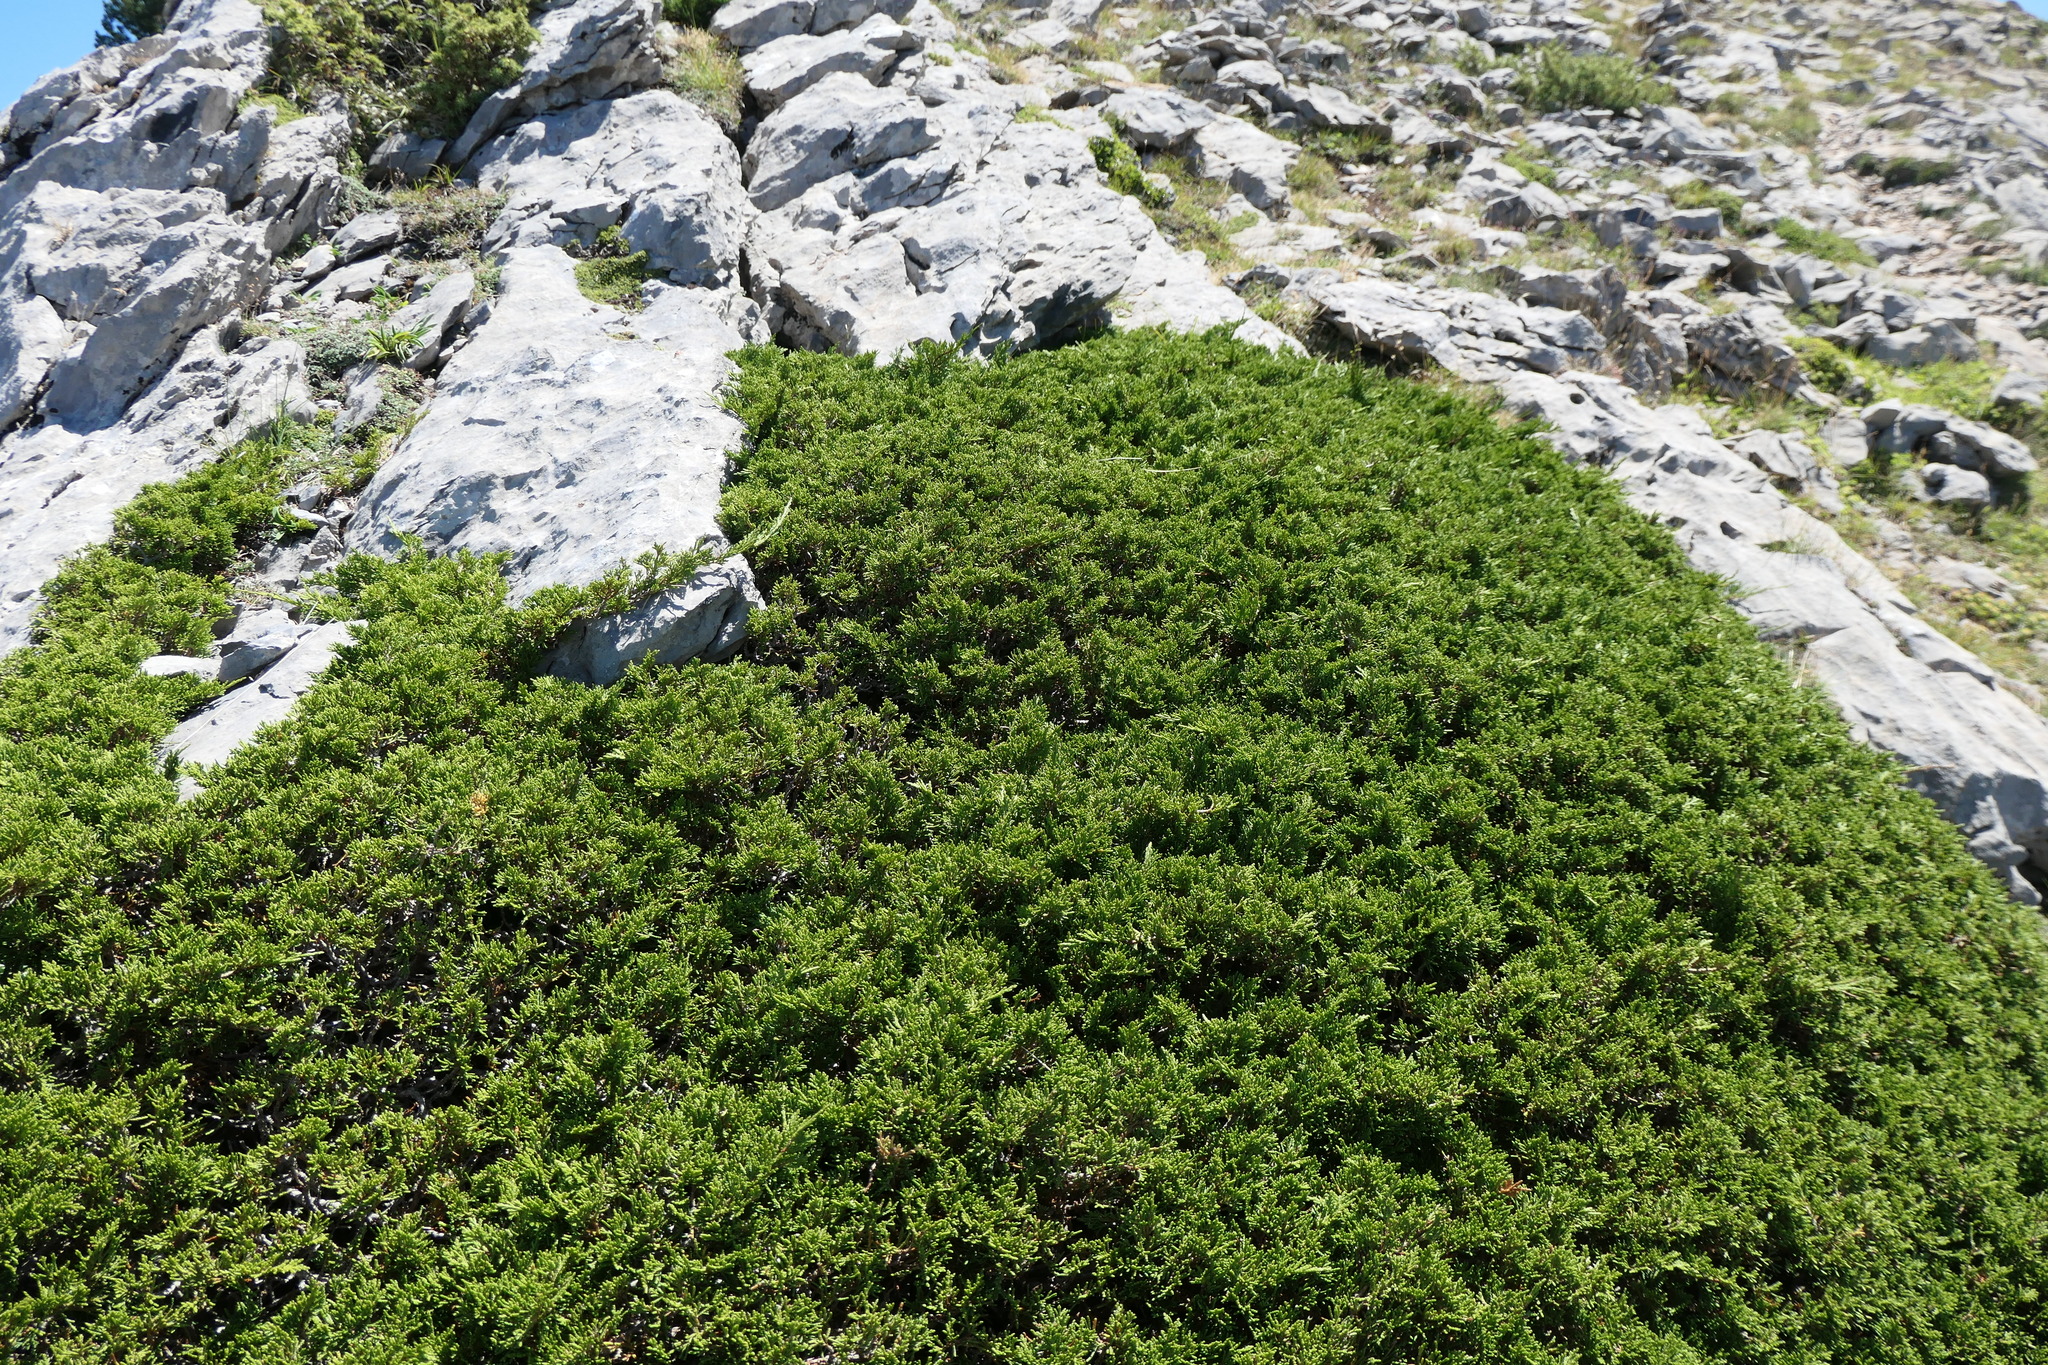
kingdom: Plantae
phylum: Tracheophyta
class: Pinopsida
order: Pinales
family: Cupressaceae
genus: Juniperus
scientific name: Juniperus sabina
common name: Savin
